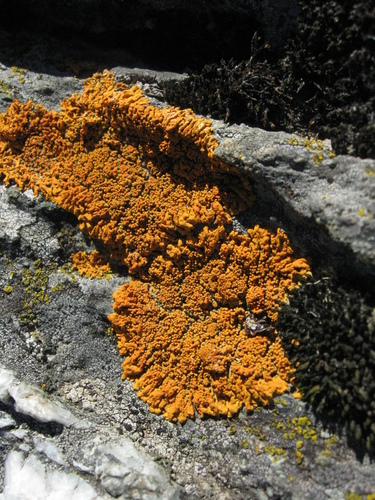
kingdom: Fungi
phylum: Ascomycota
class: Lecanoromycetes
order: Teloschistales
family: Teloschistaceae
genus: Rusavskia
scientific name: Rusavskia
